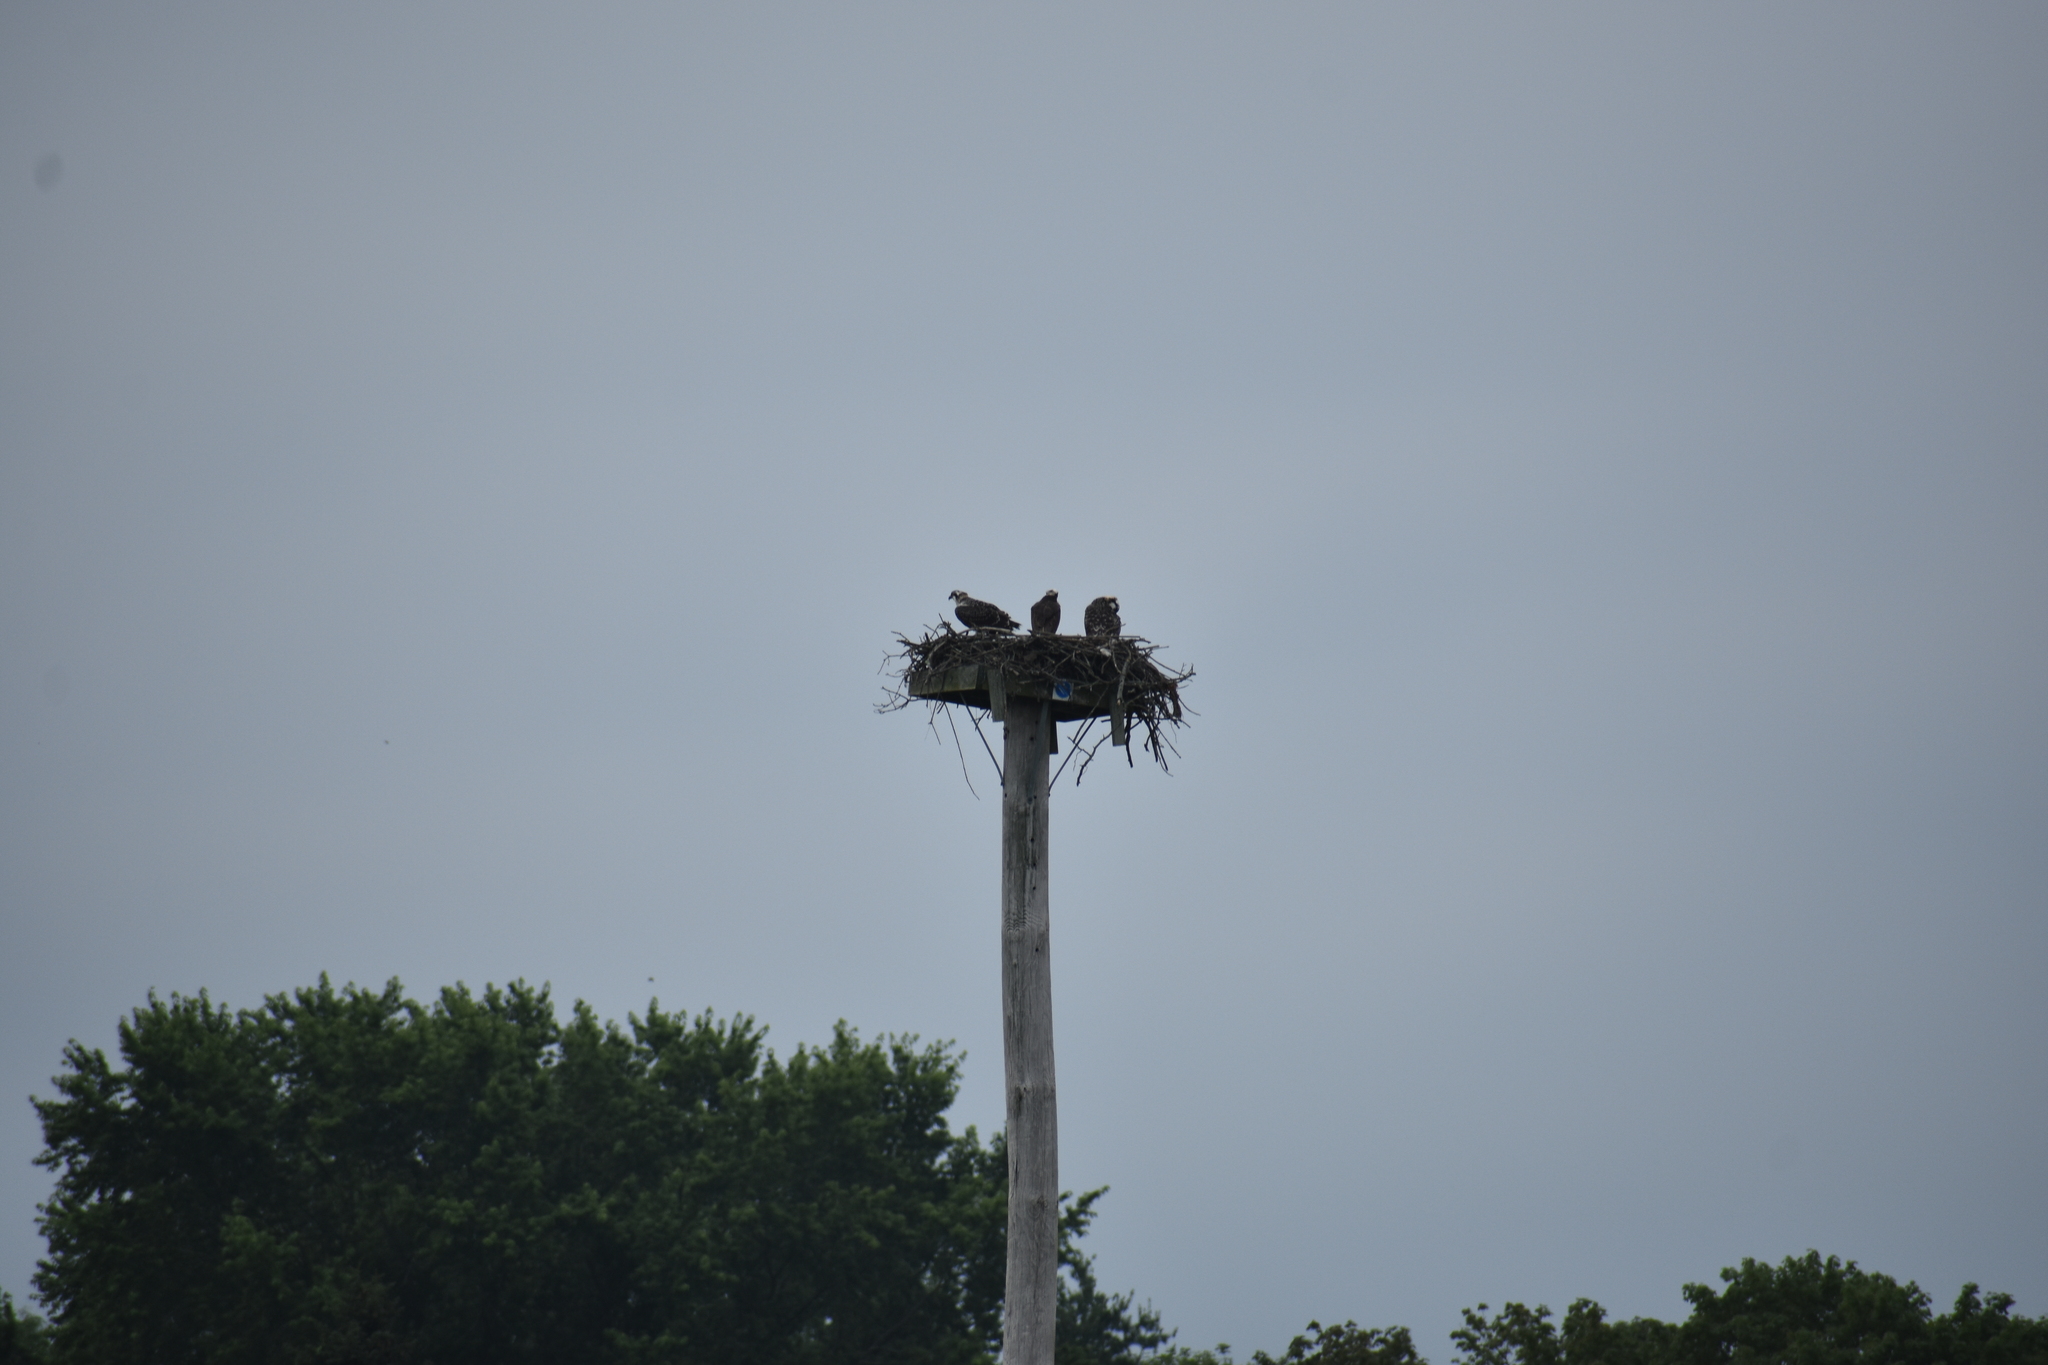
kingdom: Animalia
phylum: Chordata
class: Aves
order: Accipitriformes
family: Pandionidae
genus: Pandion
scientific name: Pandion haliaetus
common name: Osprey
